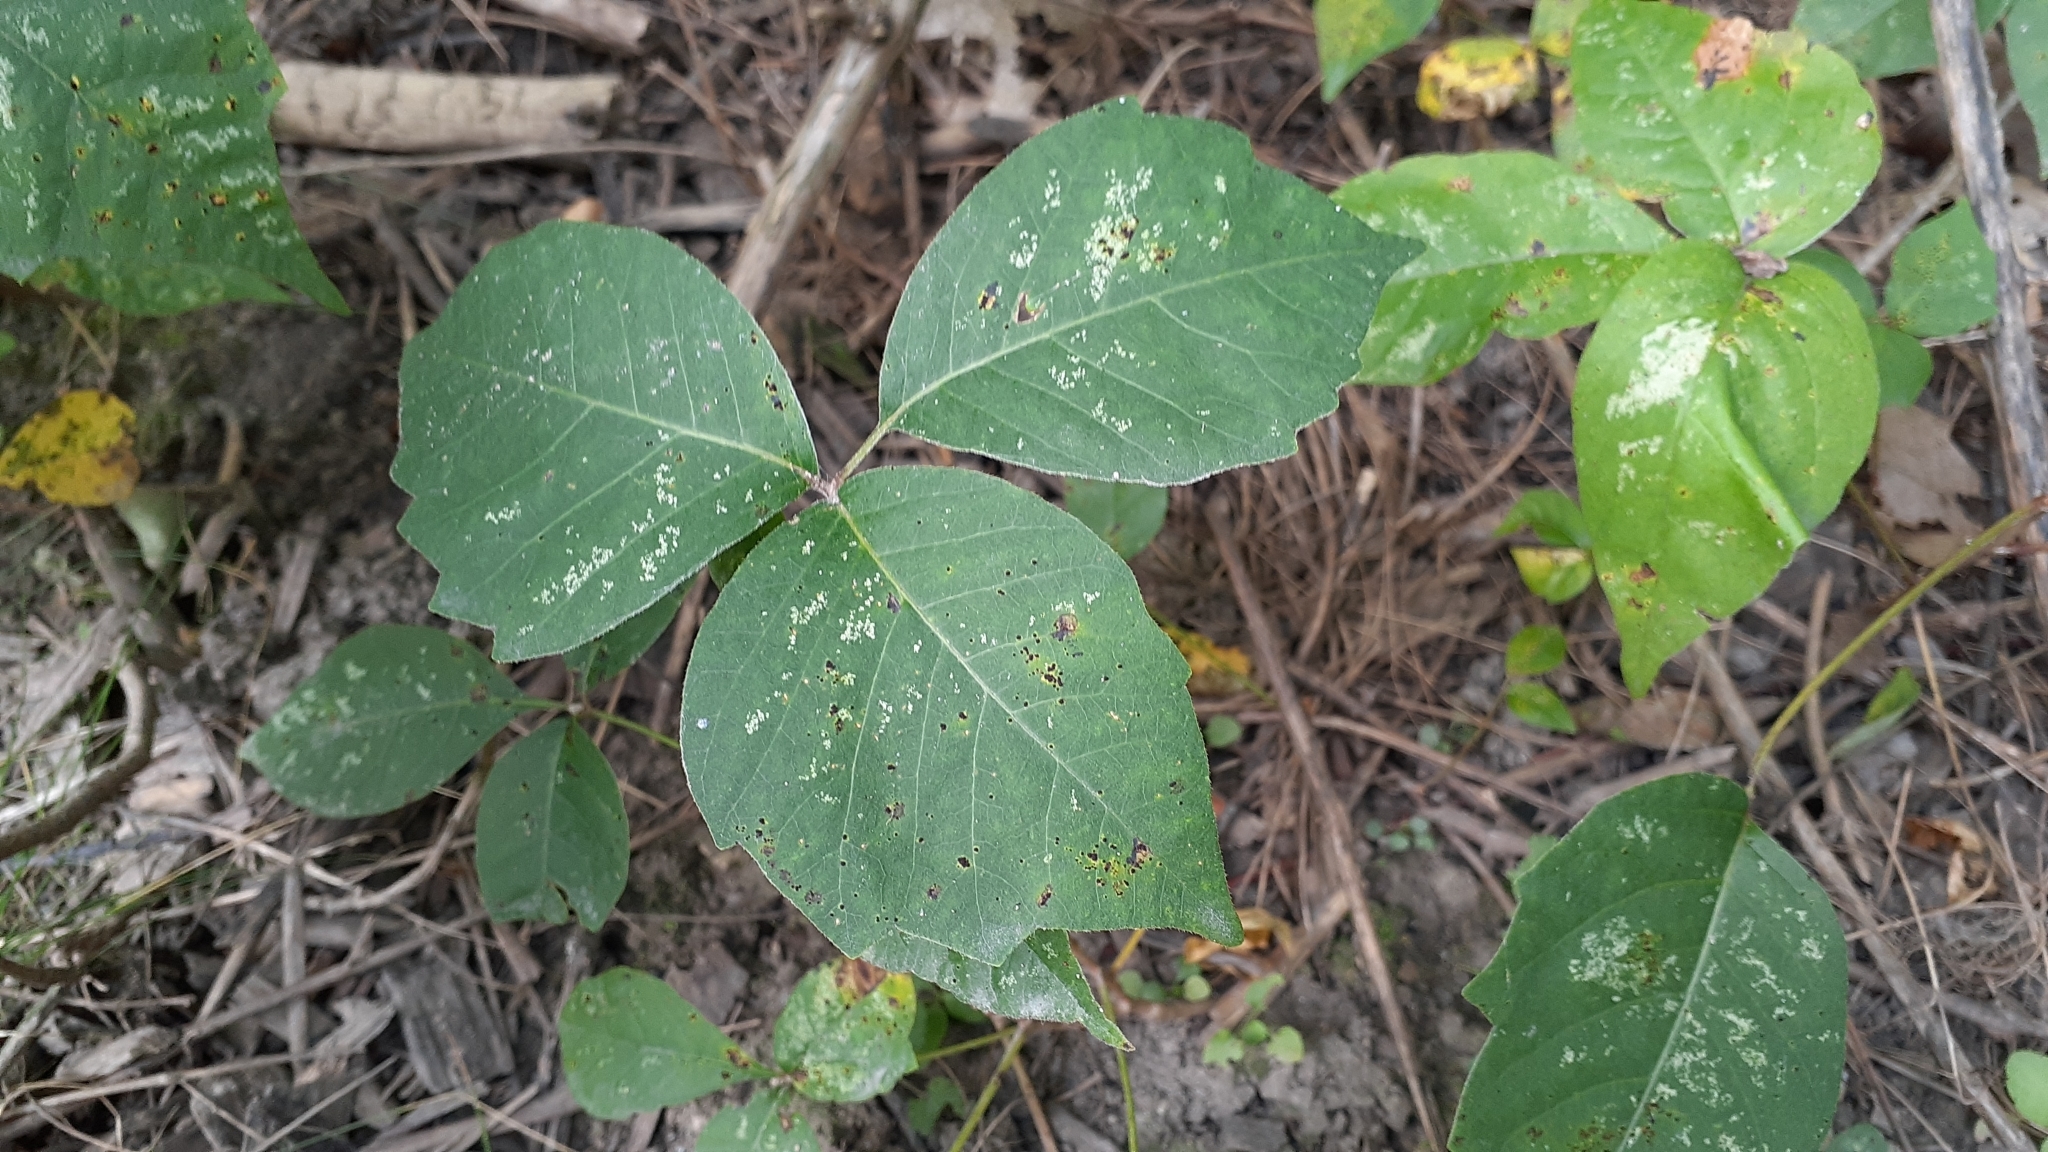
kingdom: Plantae
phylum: Tracheophyta
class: Magnoliopsida
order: Sapindales
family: Anacardiaceae
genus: Toxicodendron
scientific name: Toxicodendron rydbergii
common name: Rydberg's poison-ivy
